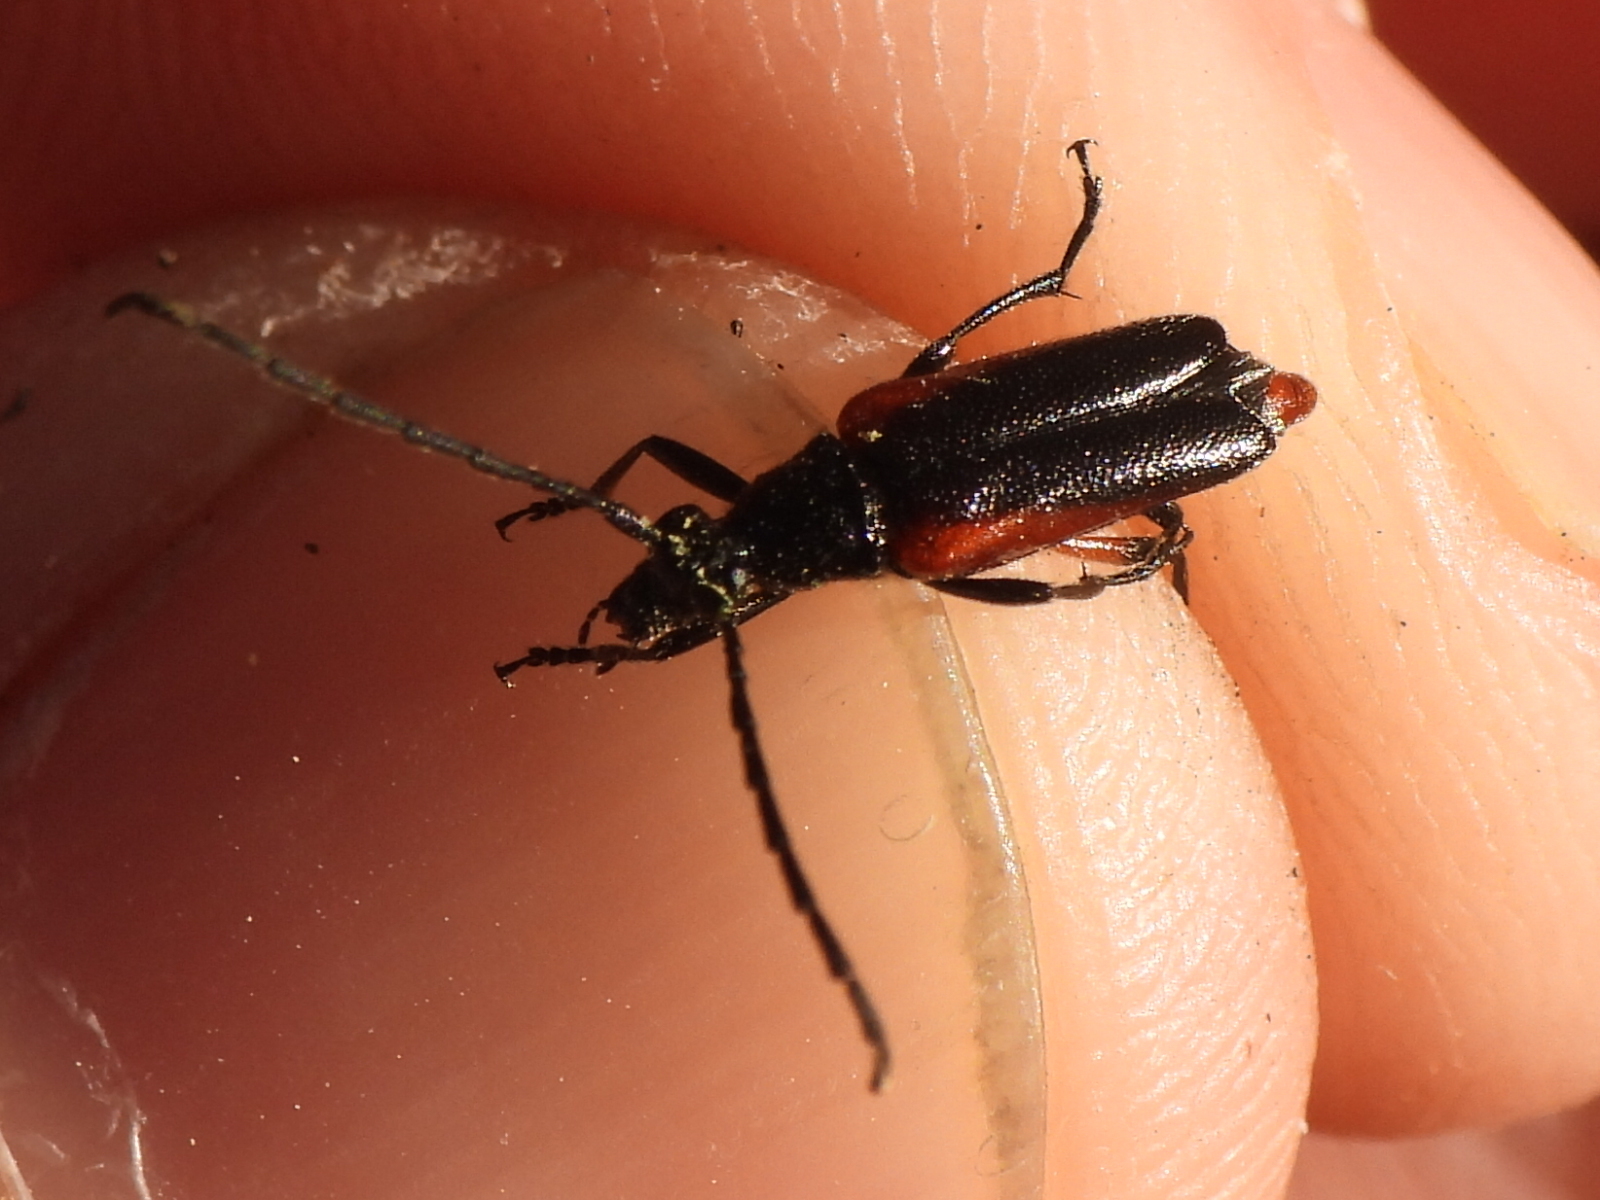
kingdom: Animalia
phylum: Arthropoda
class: Insecta
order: Coleoptera
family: Cerambycidae
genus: Pseudostrangalia
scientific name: Pseudostrangalia cruentata
